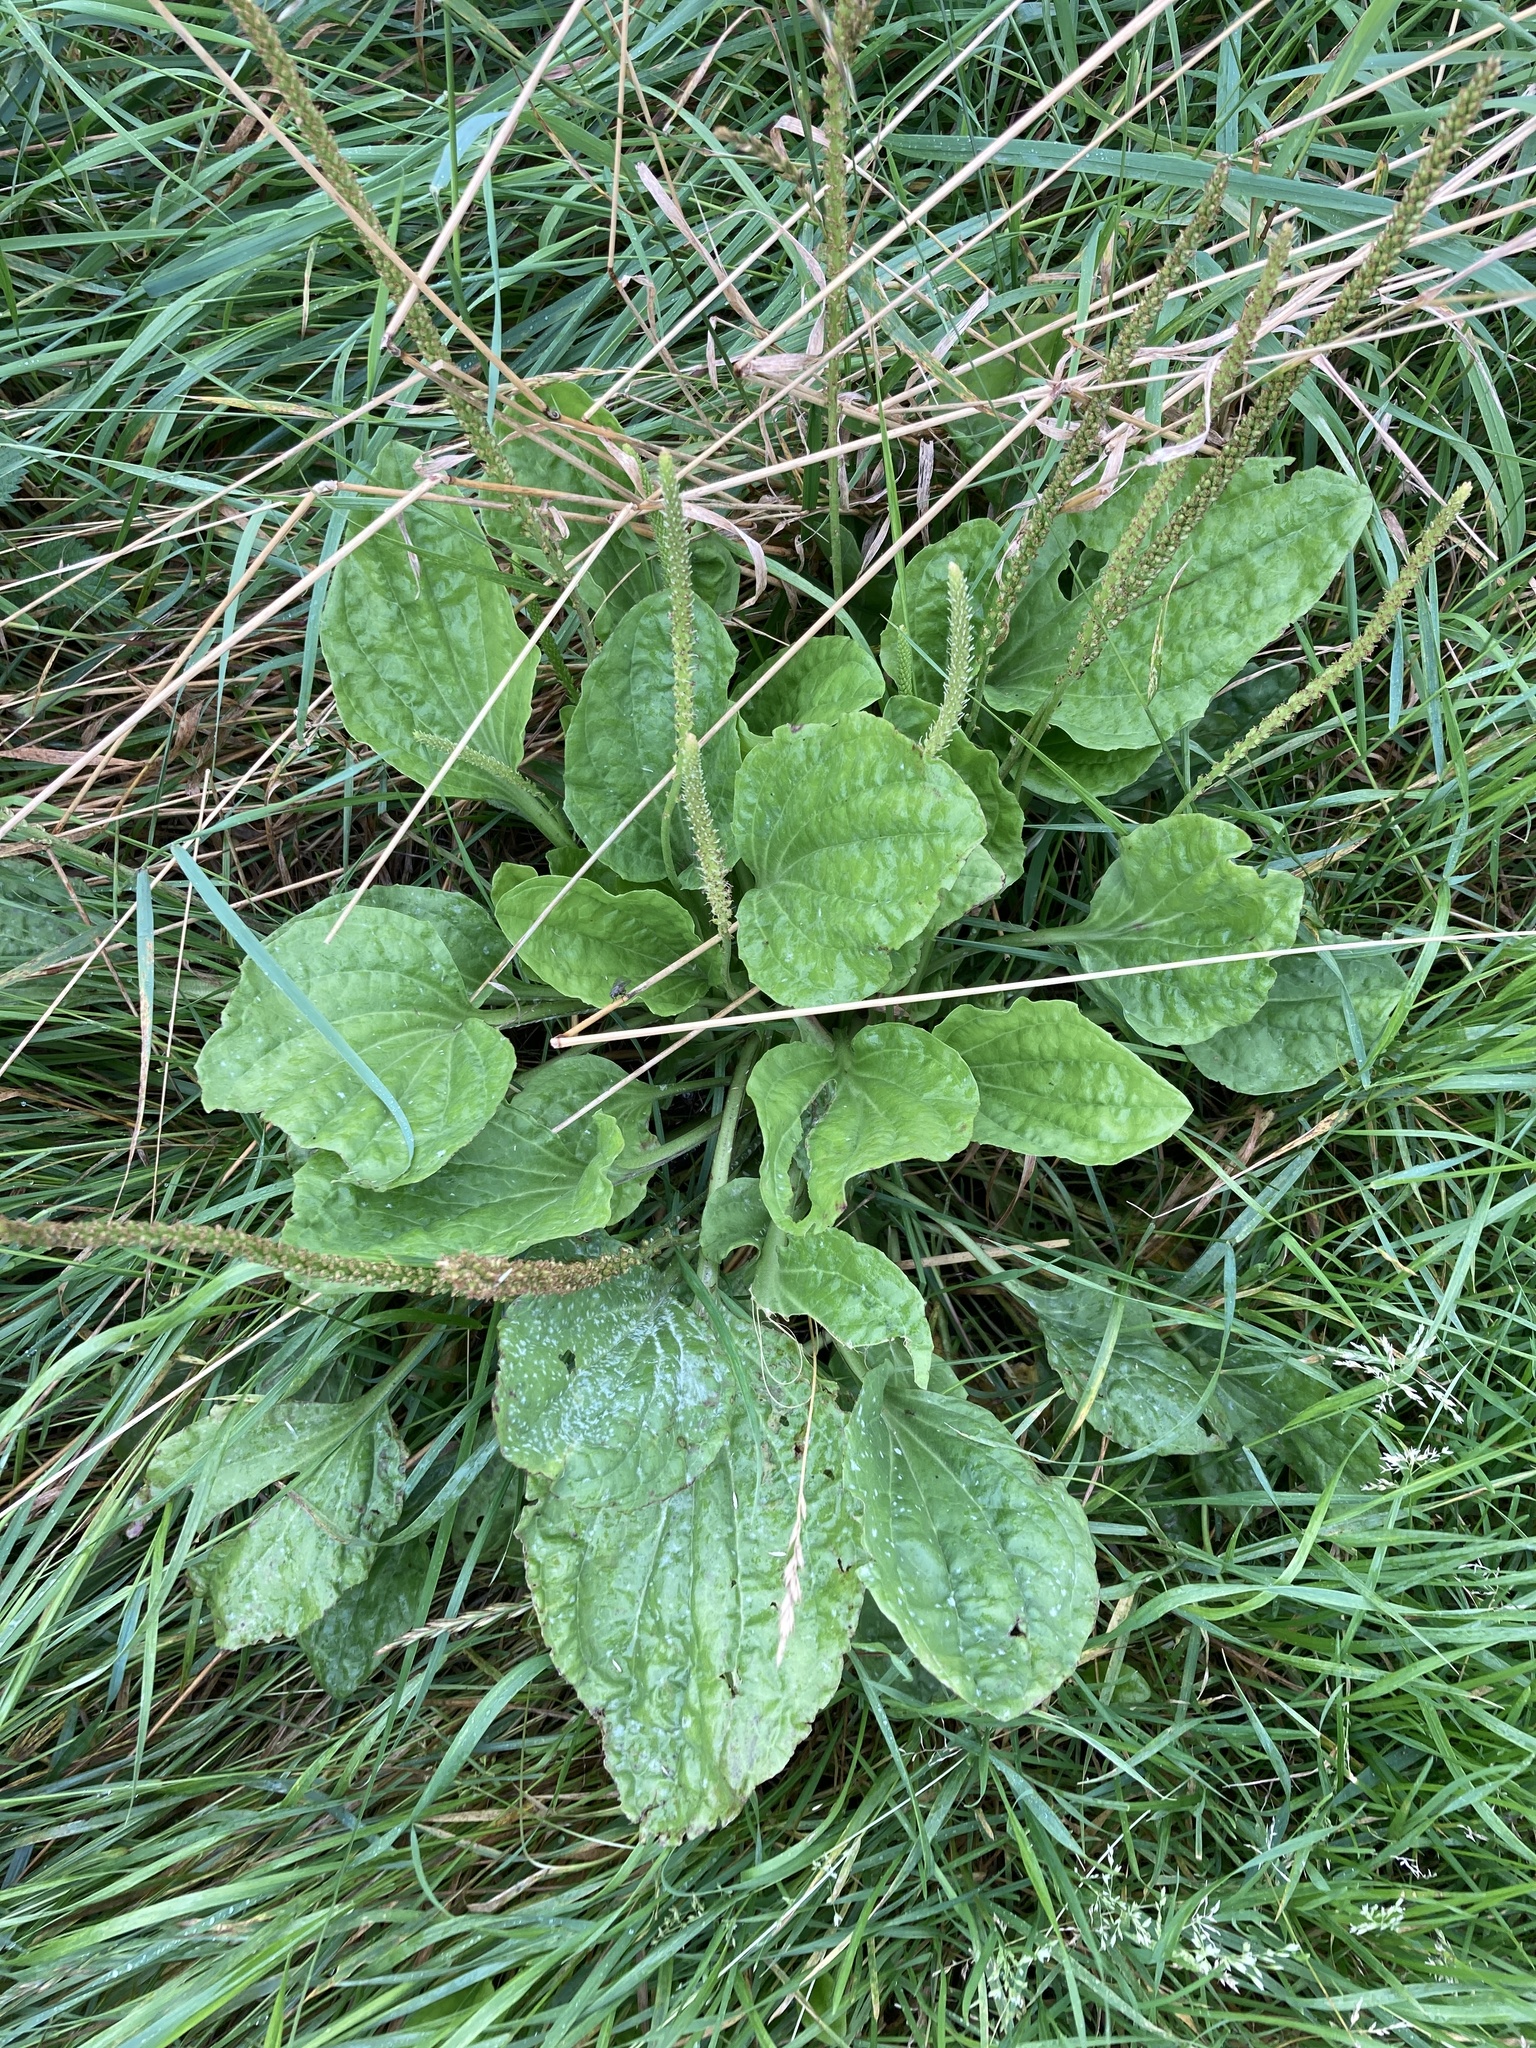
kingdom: Plantae
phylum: Tracheophyta
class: Magnoliopsida
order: Lamiales
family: Plantaginaceae
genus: Plantago
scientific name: Plantago major
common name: Common plantain
